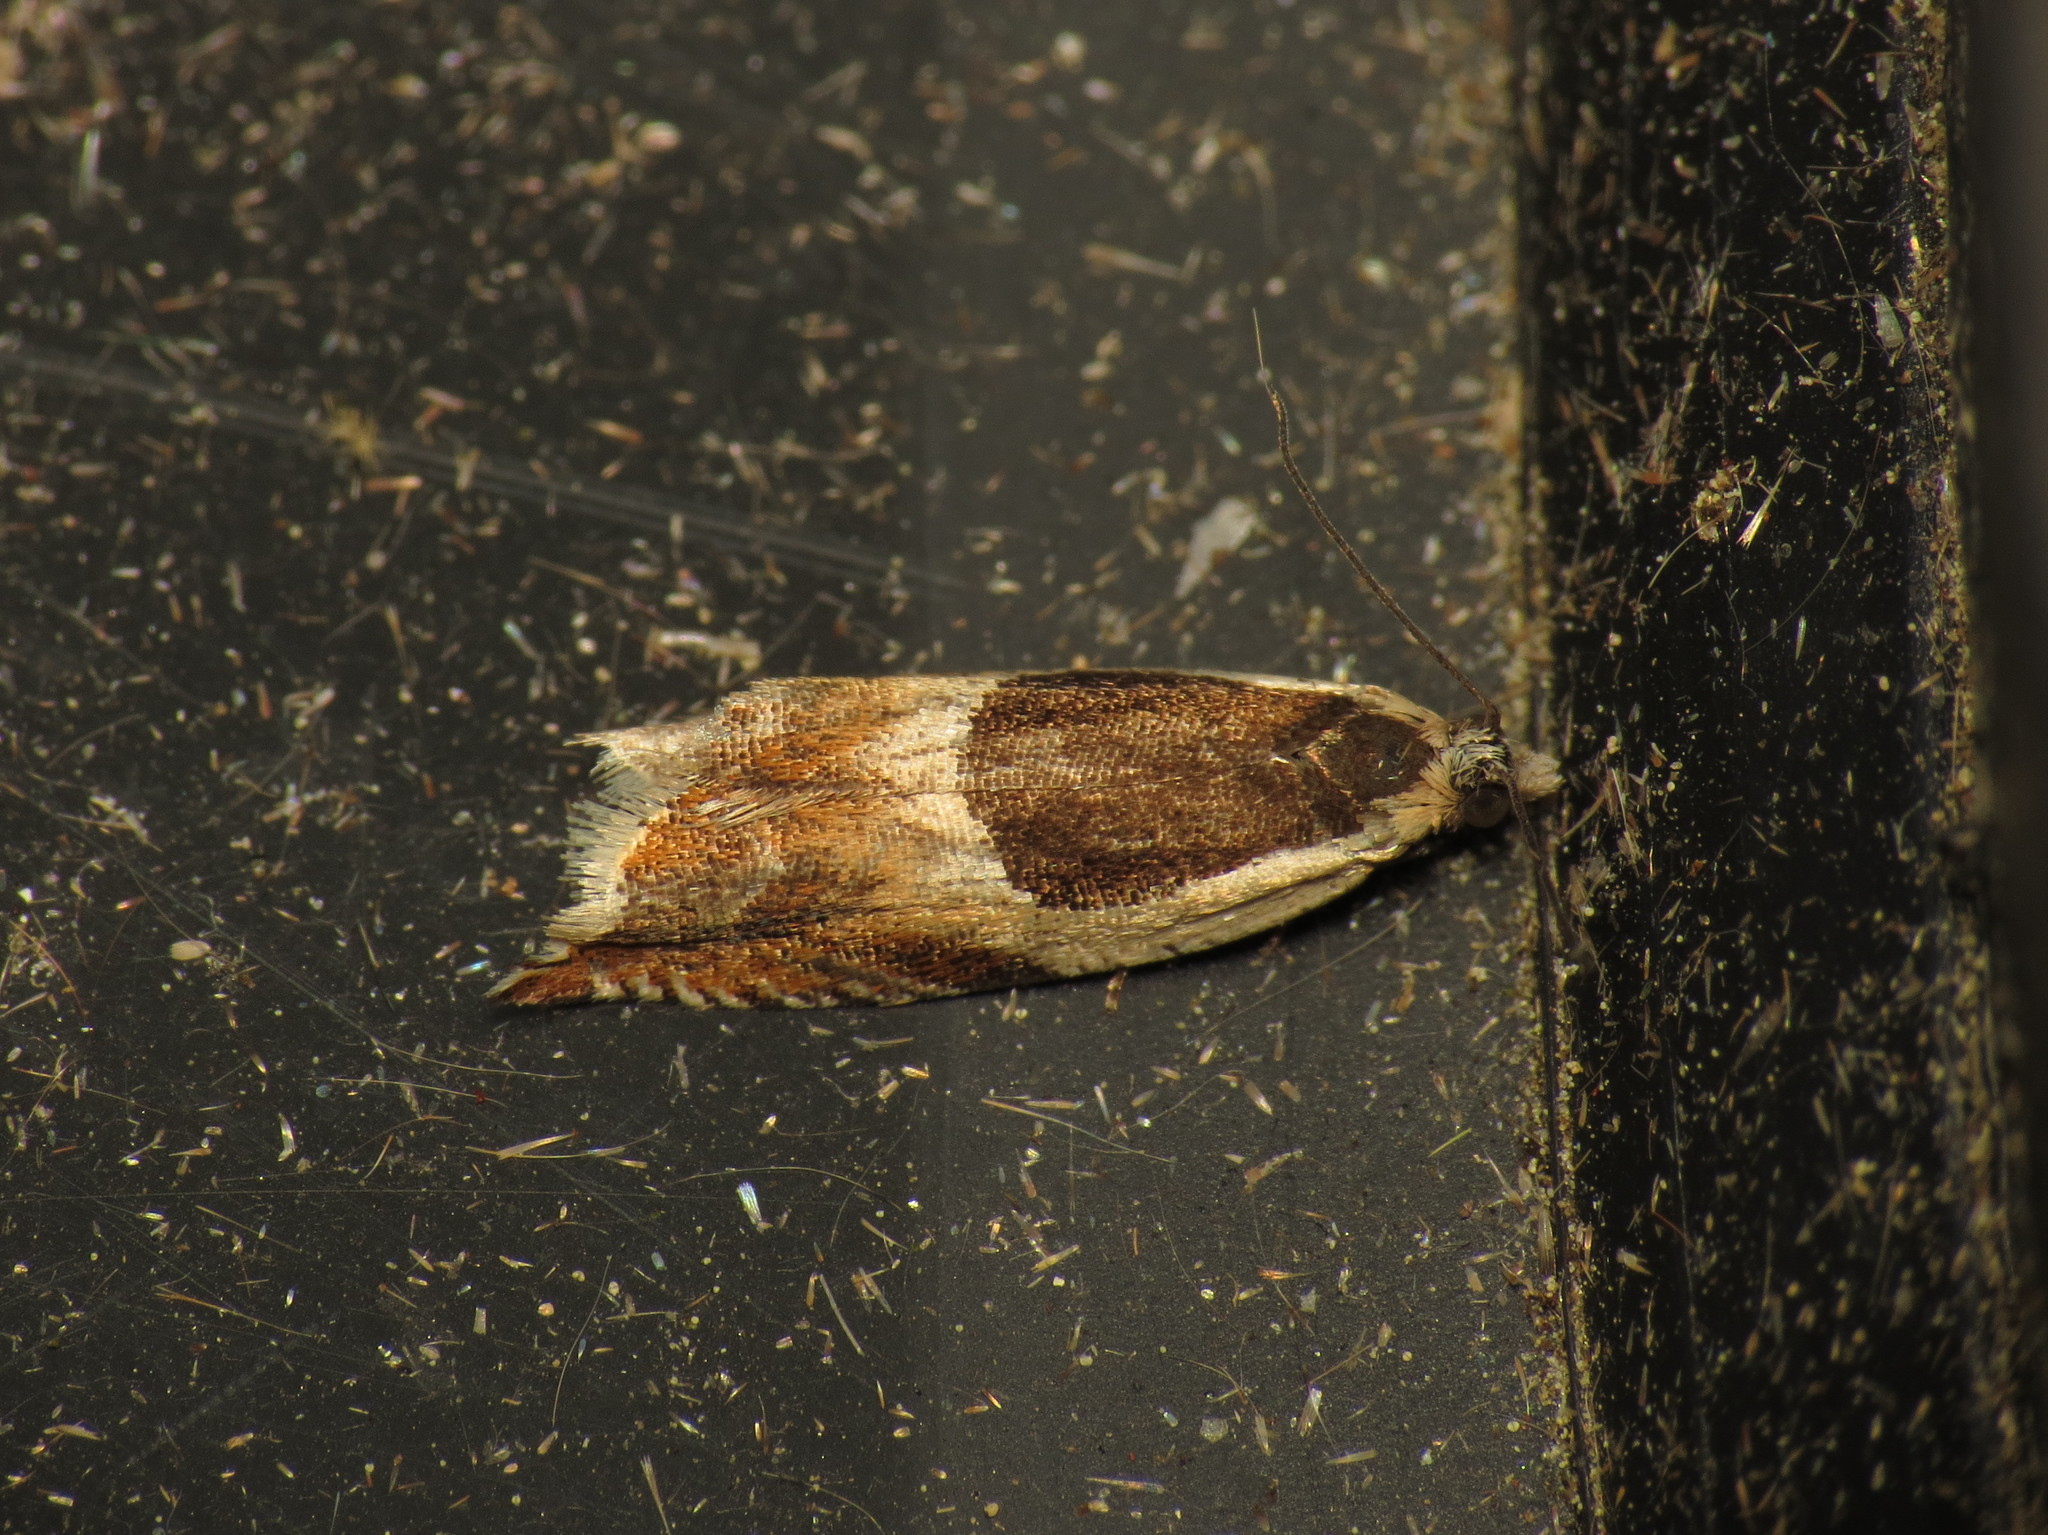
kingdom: Animalia
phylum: Arthropoda
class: Insecta
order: Lepidoptera
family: Tortricidae
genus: Ancylis
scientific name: Ancylis badiana
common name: Common roller
